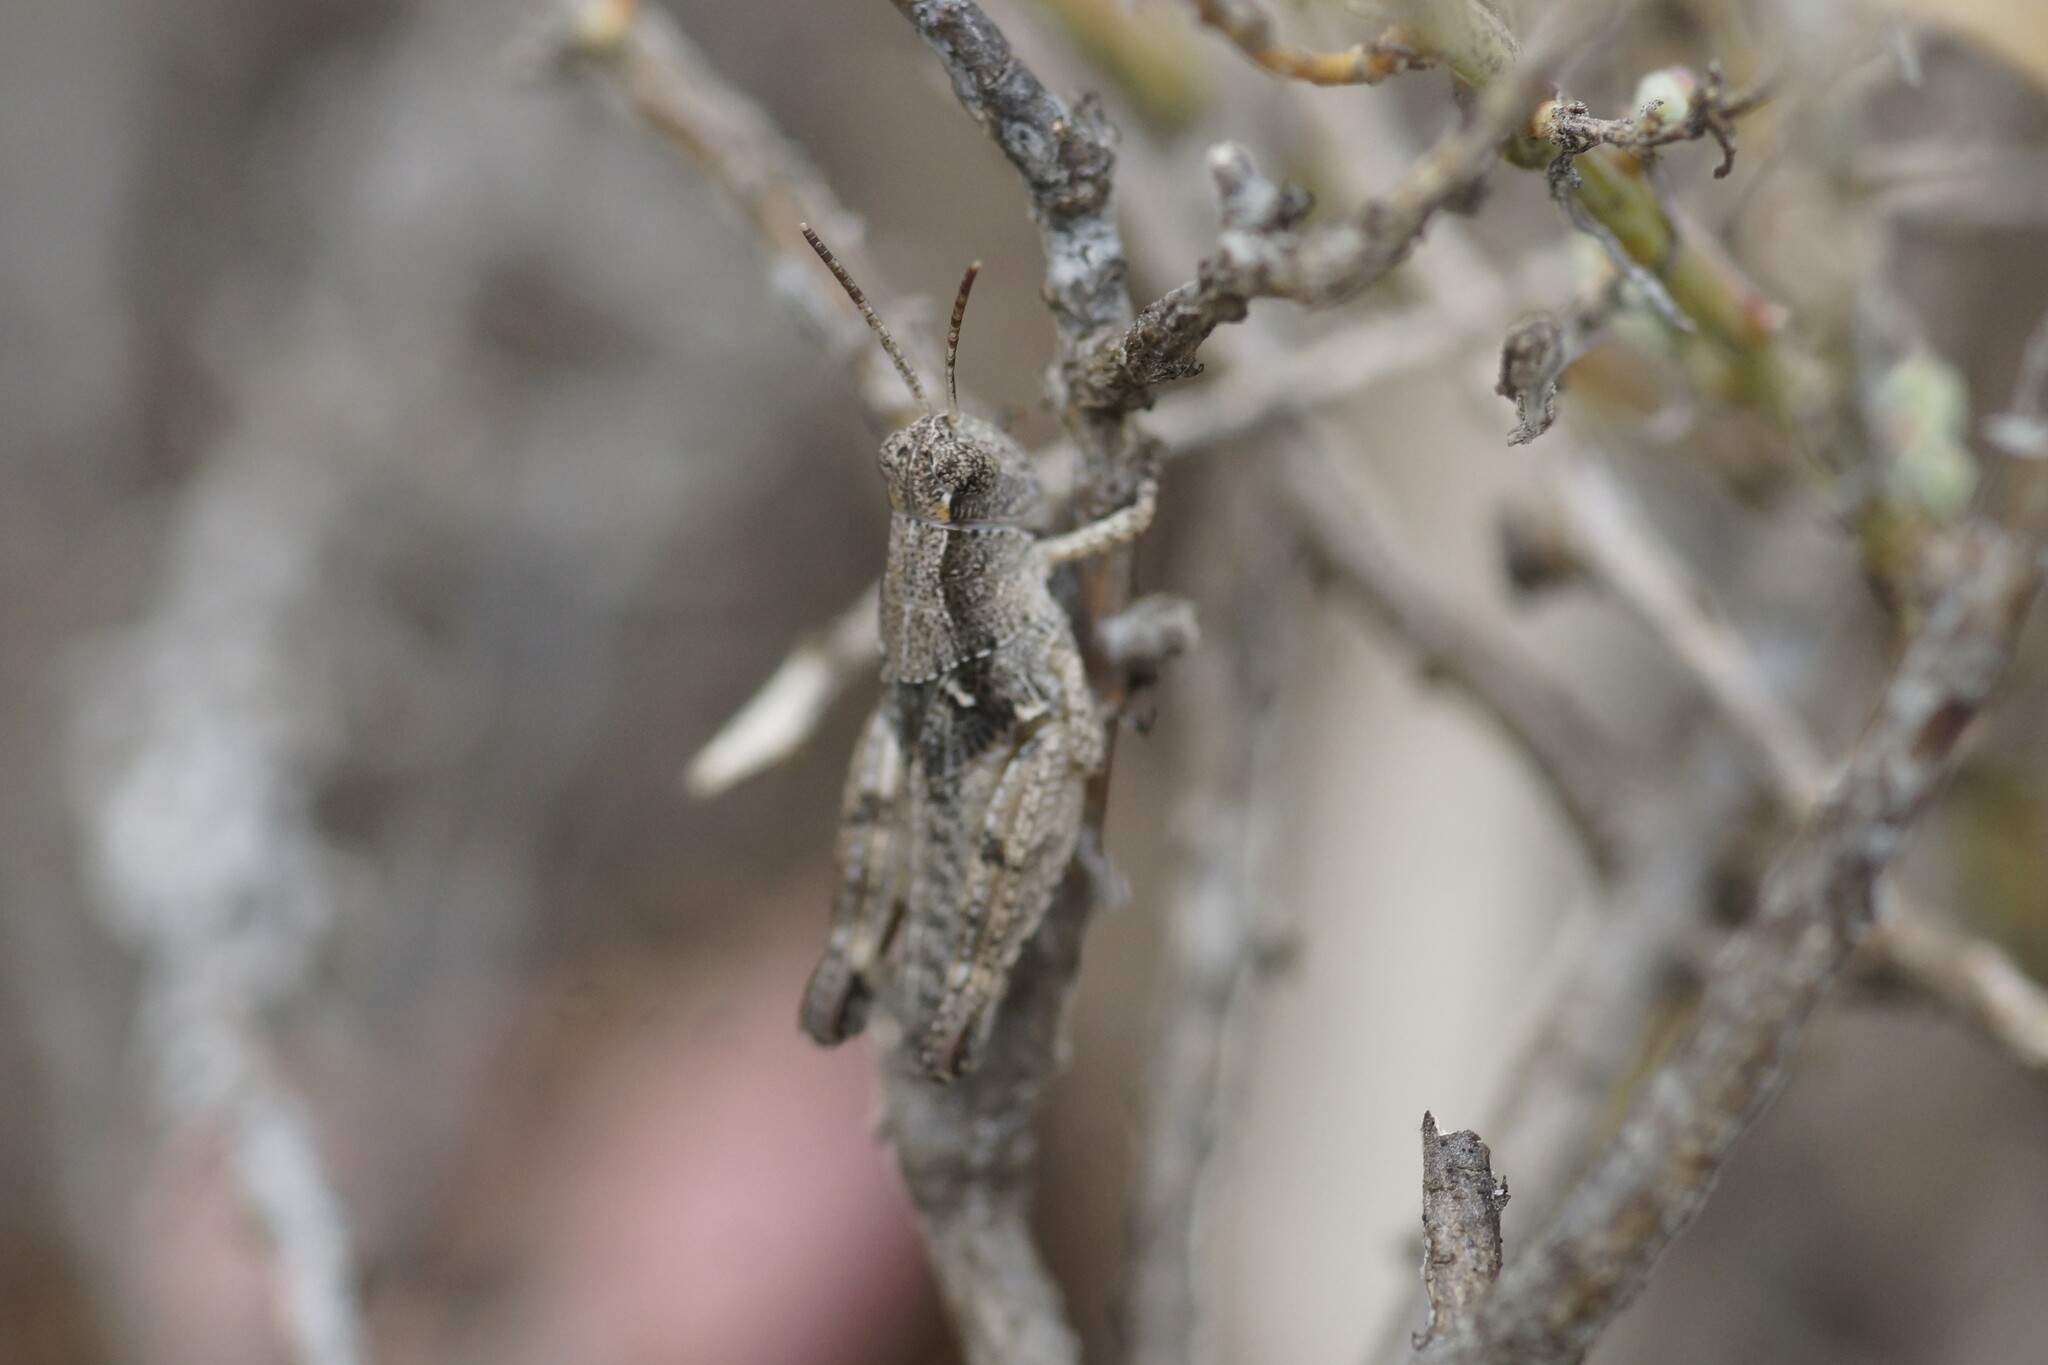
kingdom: Animalia
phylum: Arthropoda
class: Insecta
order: Orthoptera
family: Acrididae
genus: Phaulacridium
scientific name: Phaulacridium vittatum
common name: Wingless grasshopper
